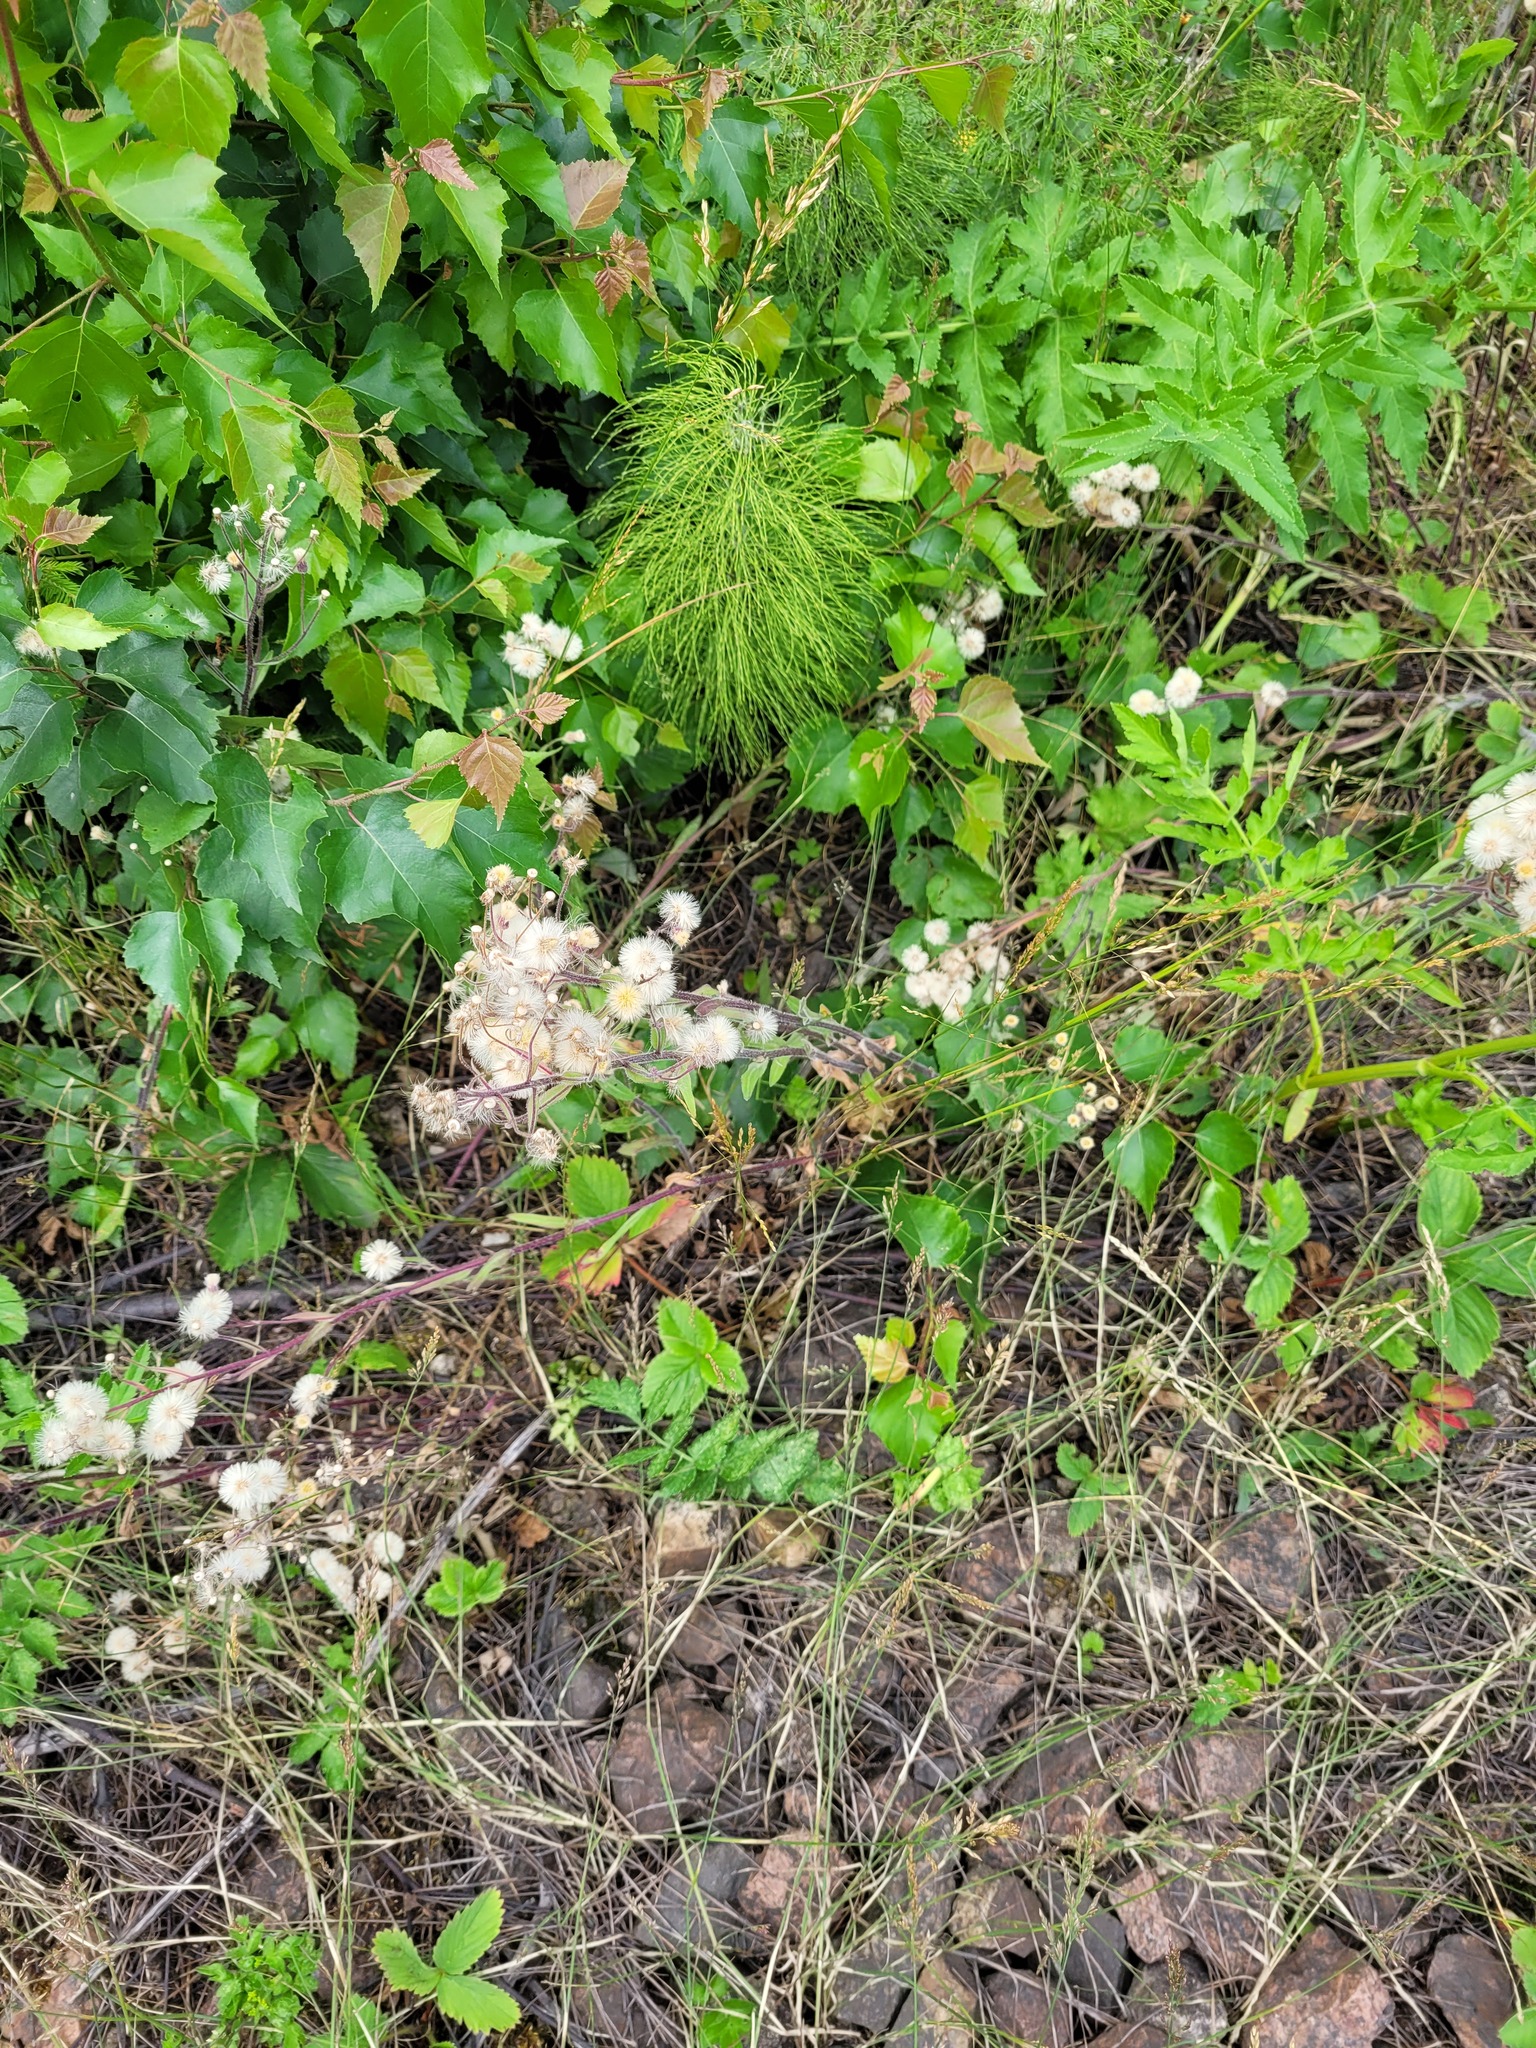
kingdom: Plantae
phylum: Tracheophyta
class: Magnoliopsida
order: Asterales
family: Asteraceae
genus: Erigeron
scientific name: Erigeron acris
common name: Blue fleabane
